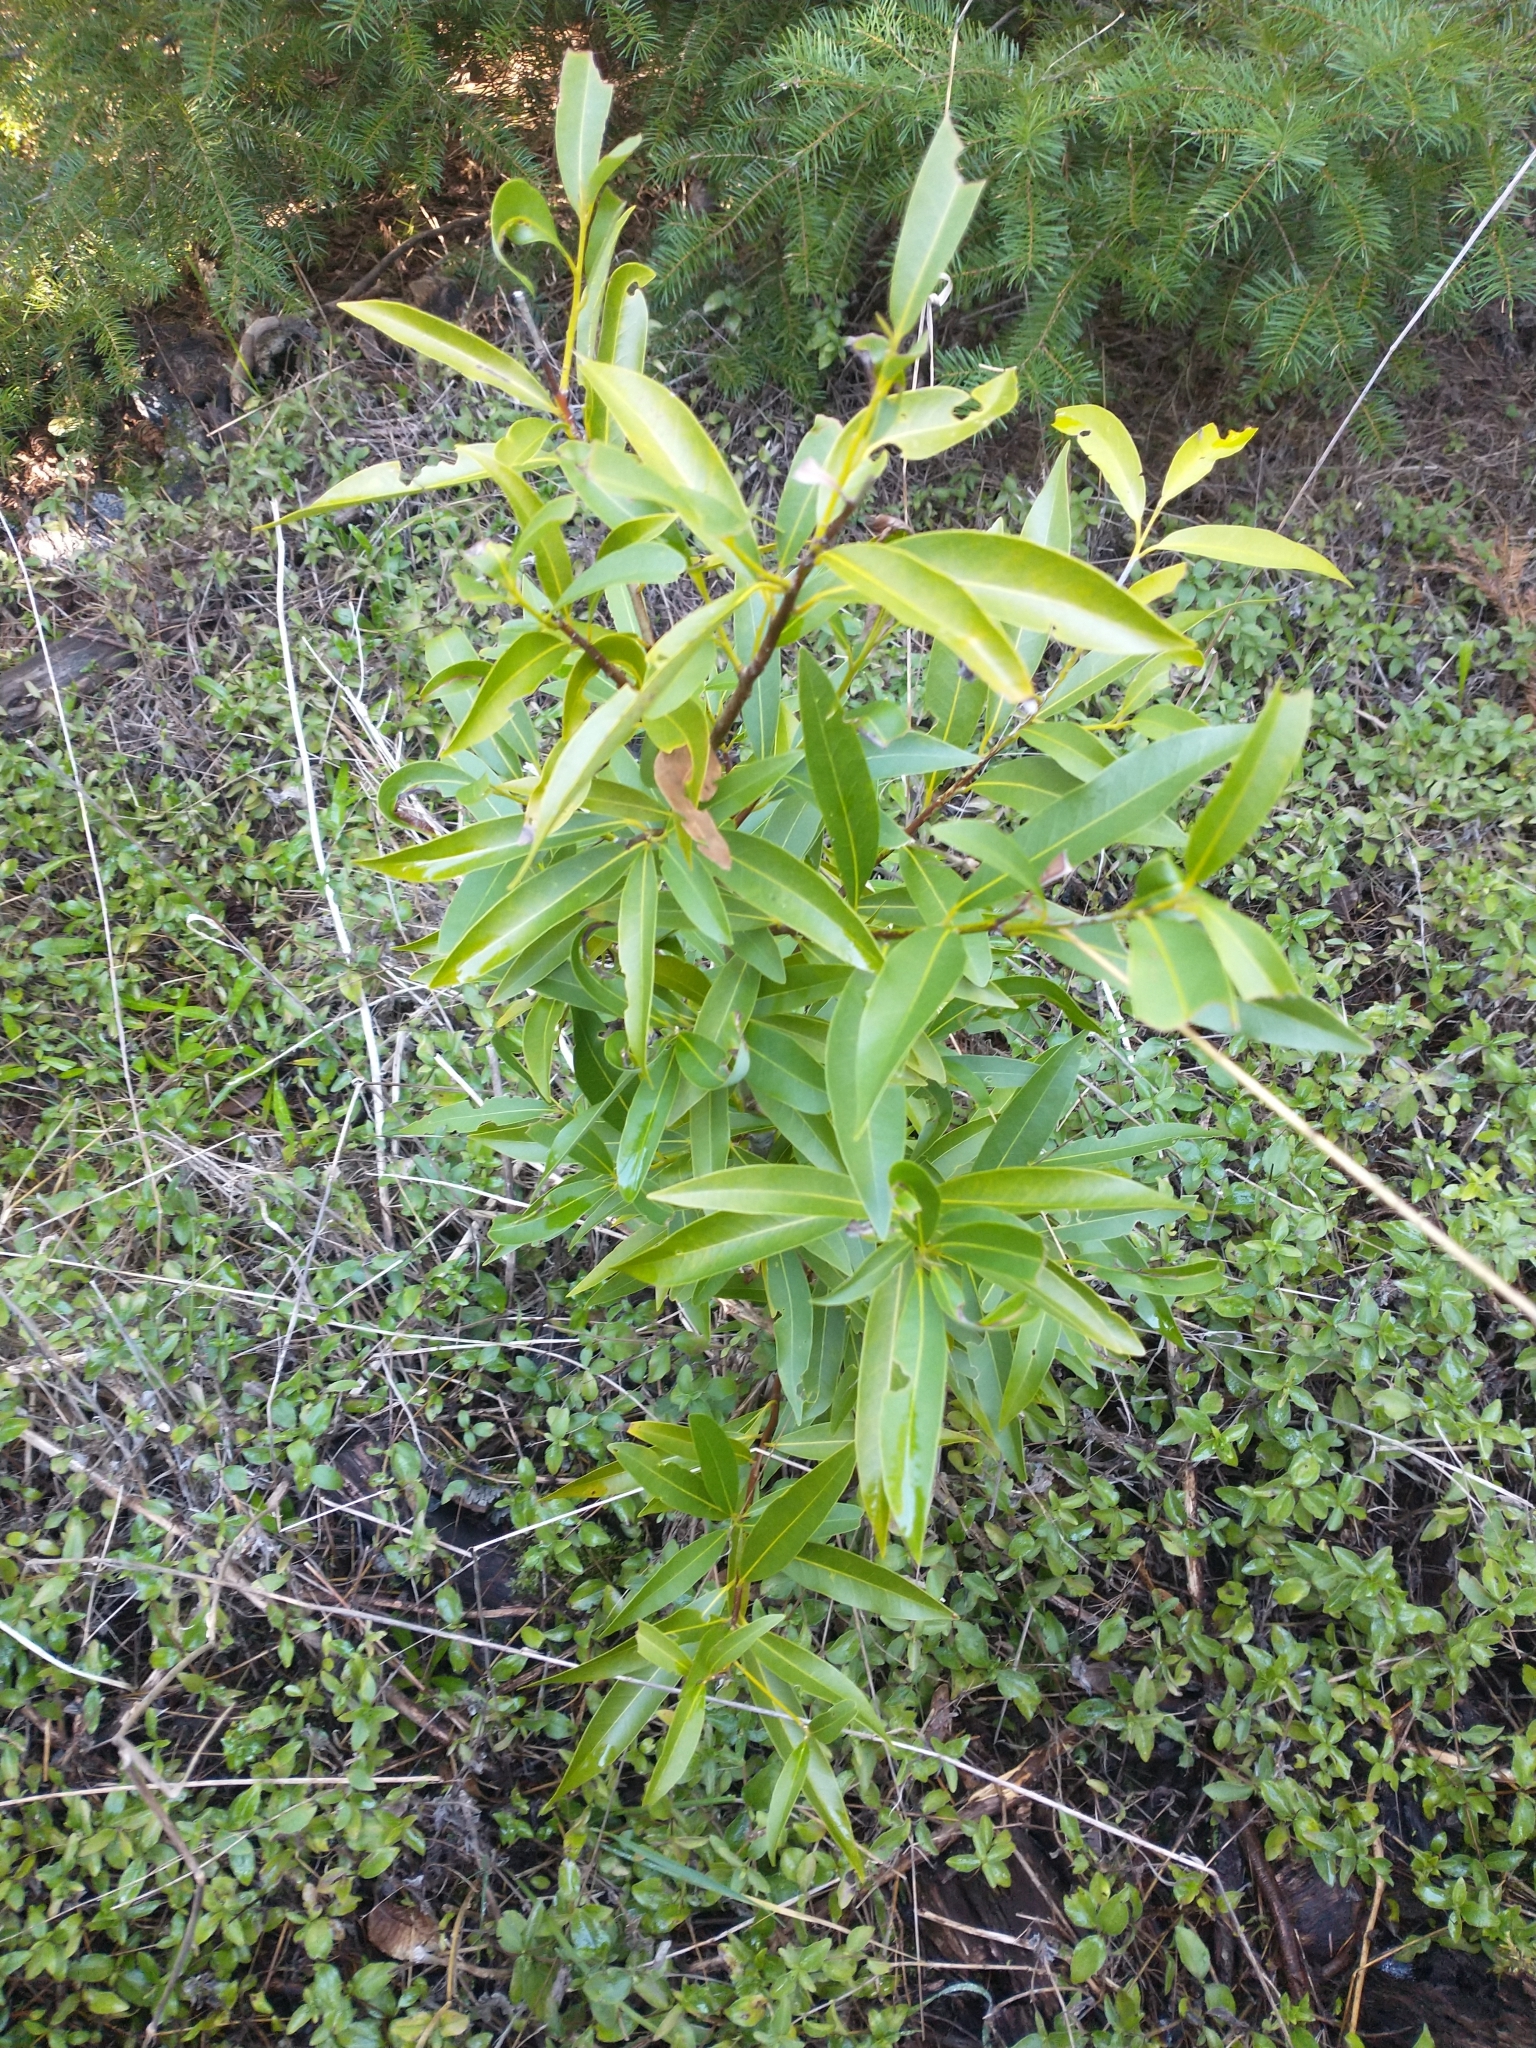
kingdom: Plantae
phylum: Tracheophyta
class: Magnoliopsida
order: Laurales
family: Lauraceae
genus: Umbellularia
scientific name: Umbellularia californica
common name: California bay
